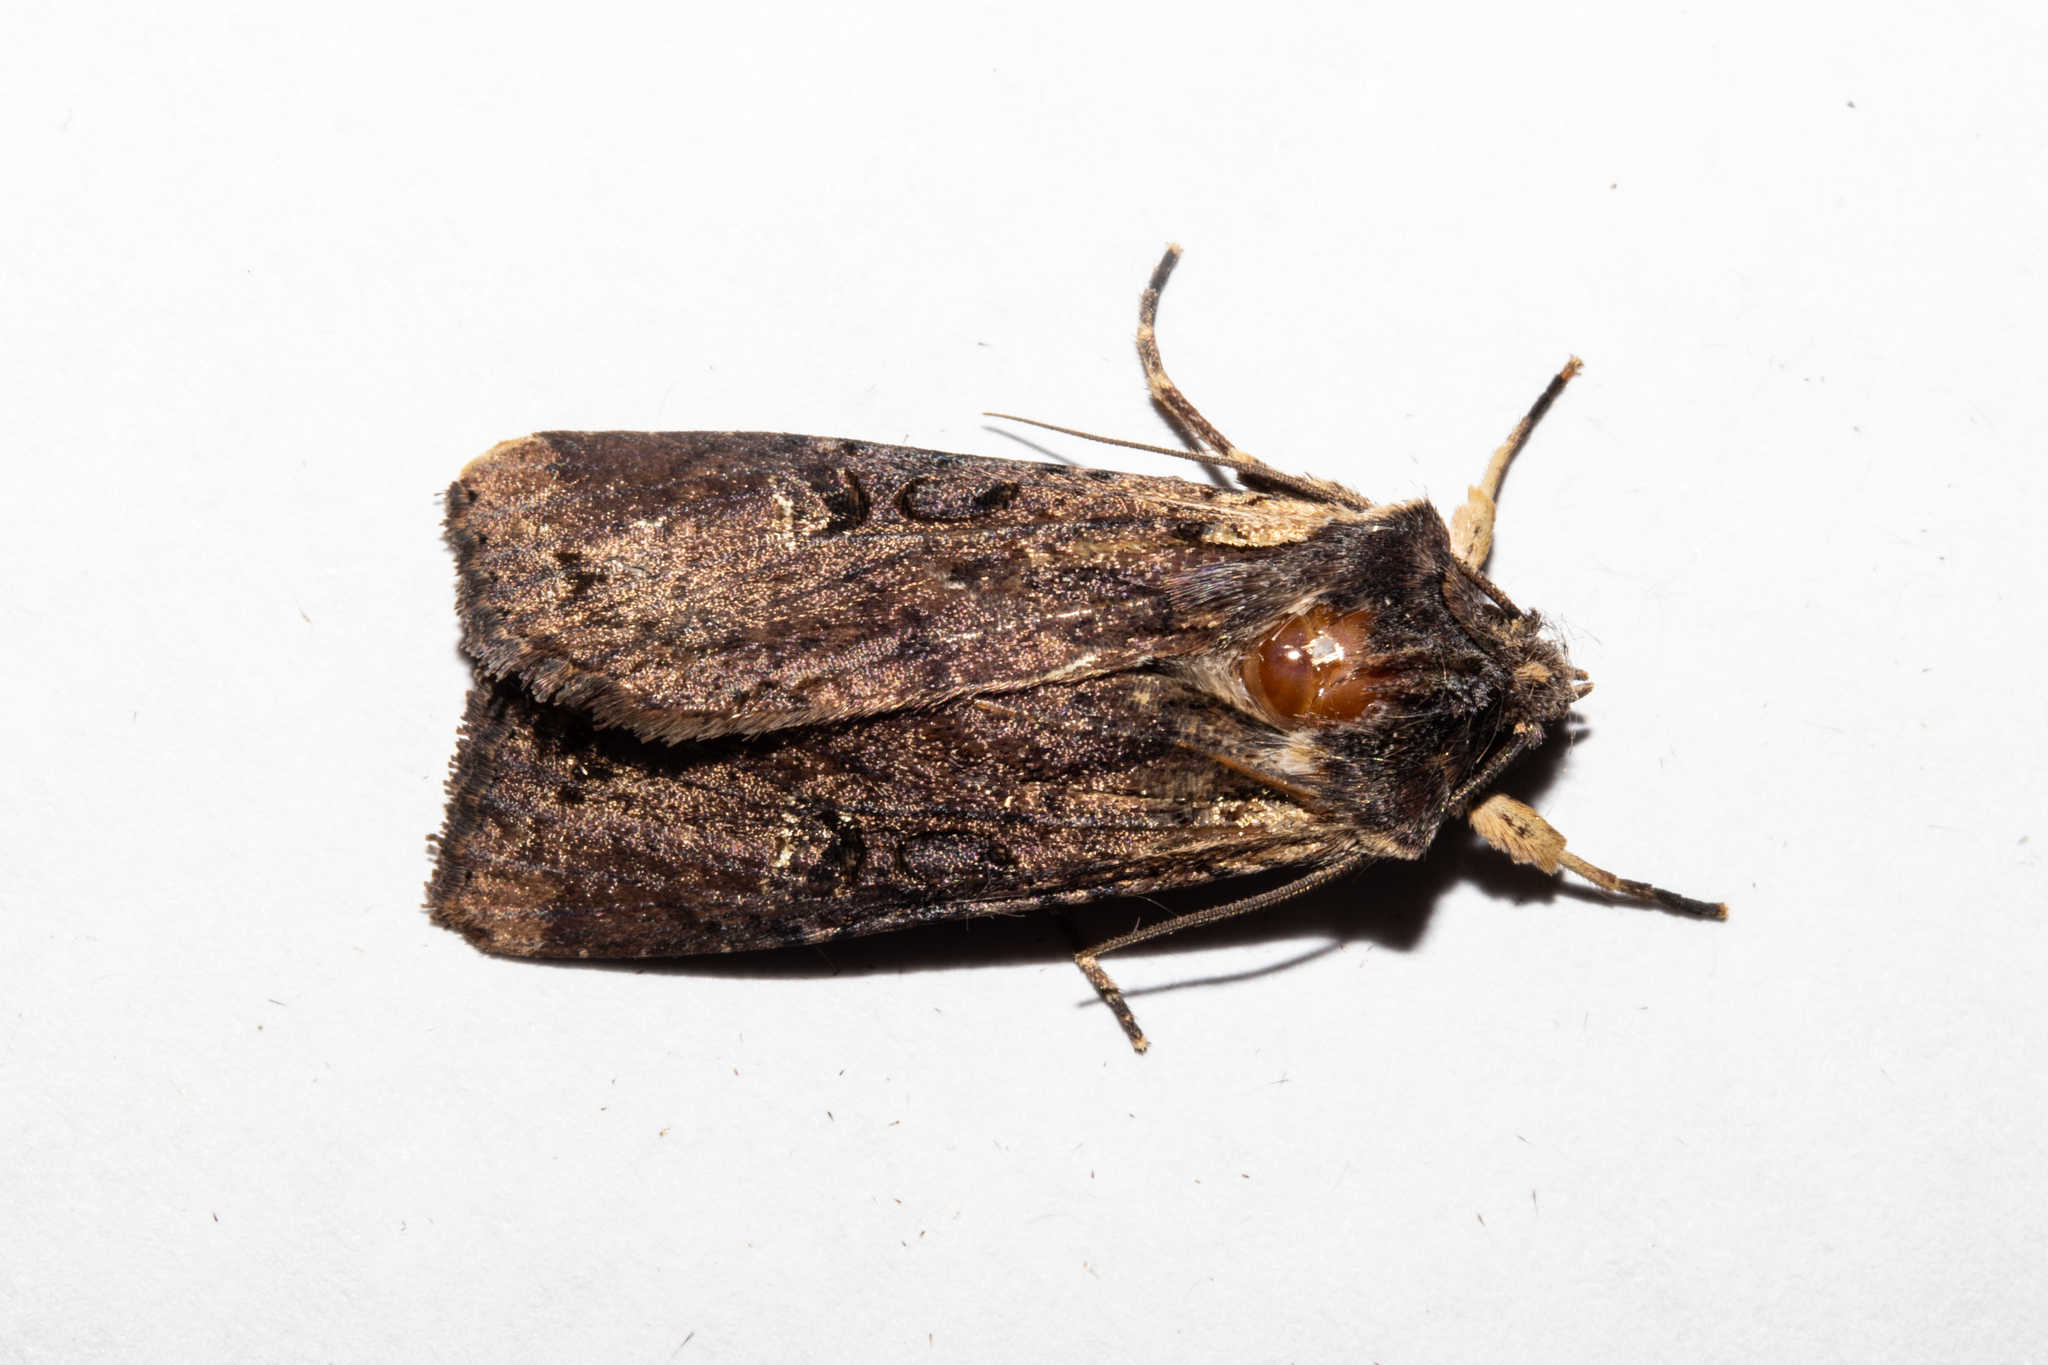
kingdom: Animalia
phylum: Arthropoda
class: Insecta
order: Lepidoptera
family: Noctuidae
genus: Ichneutica
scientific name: Ichneutica omoplaca
